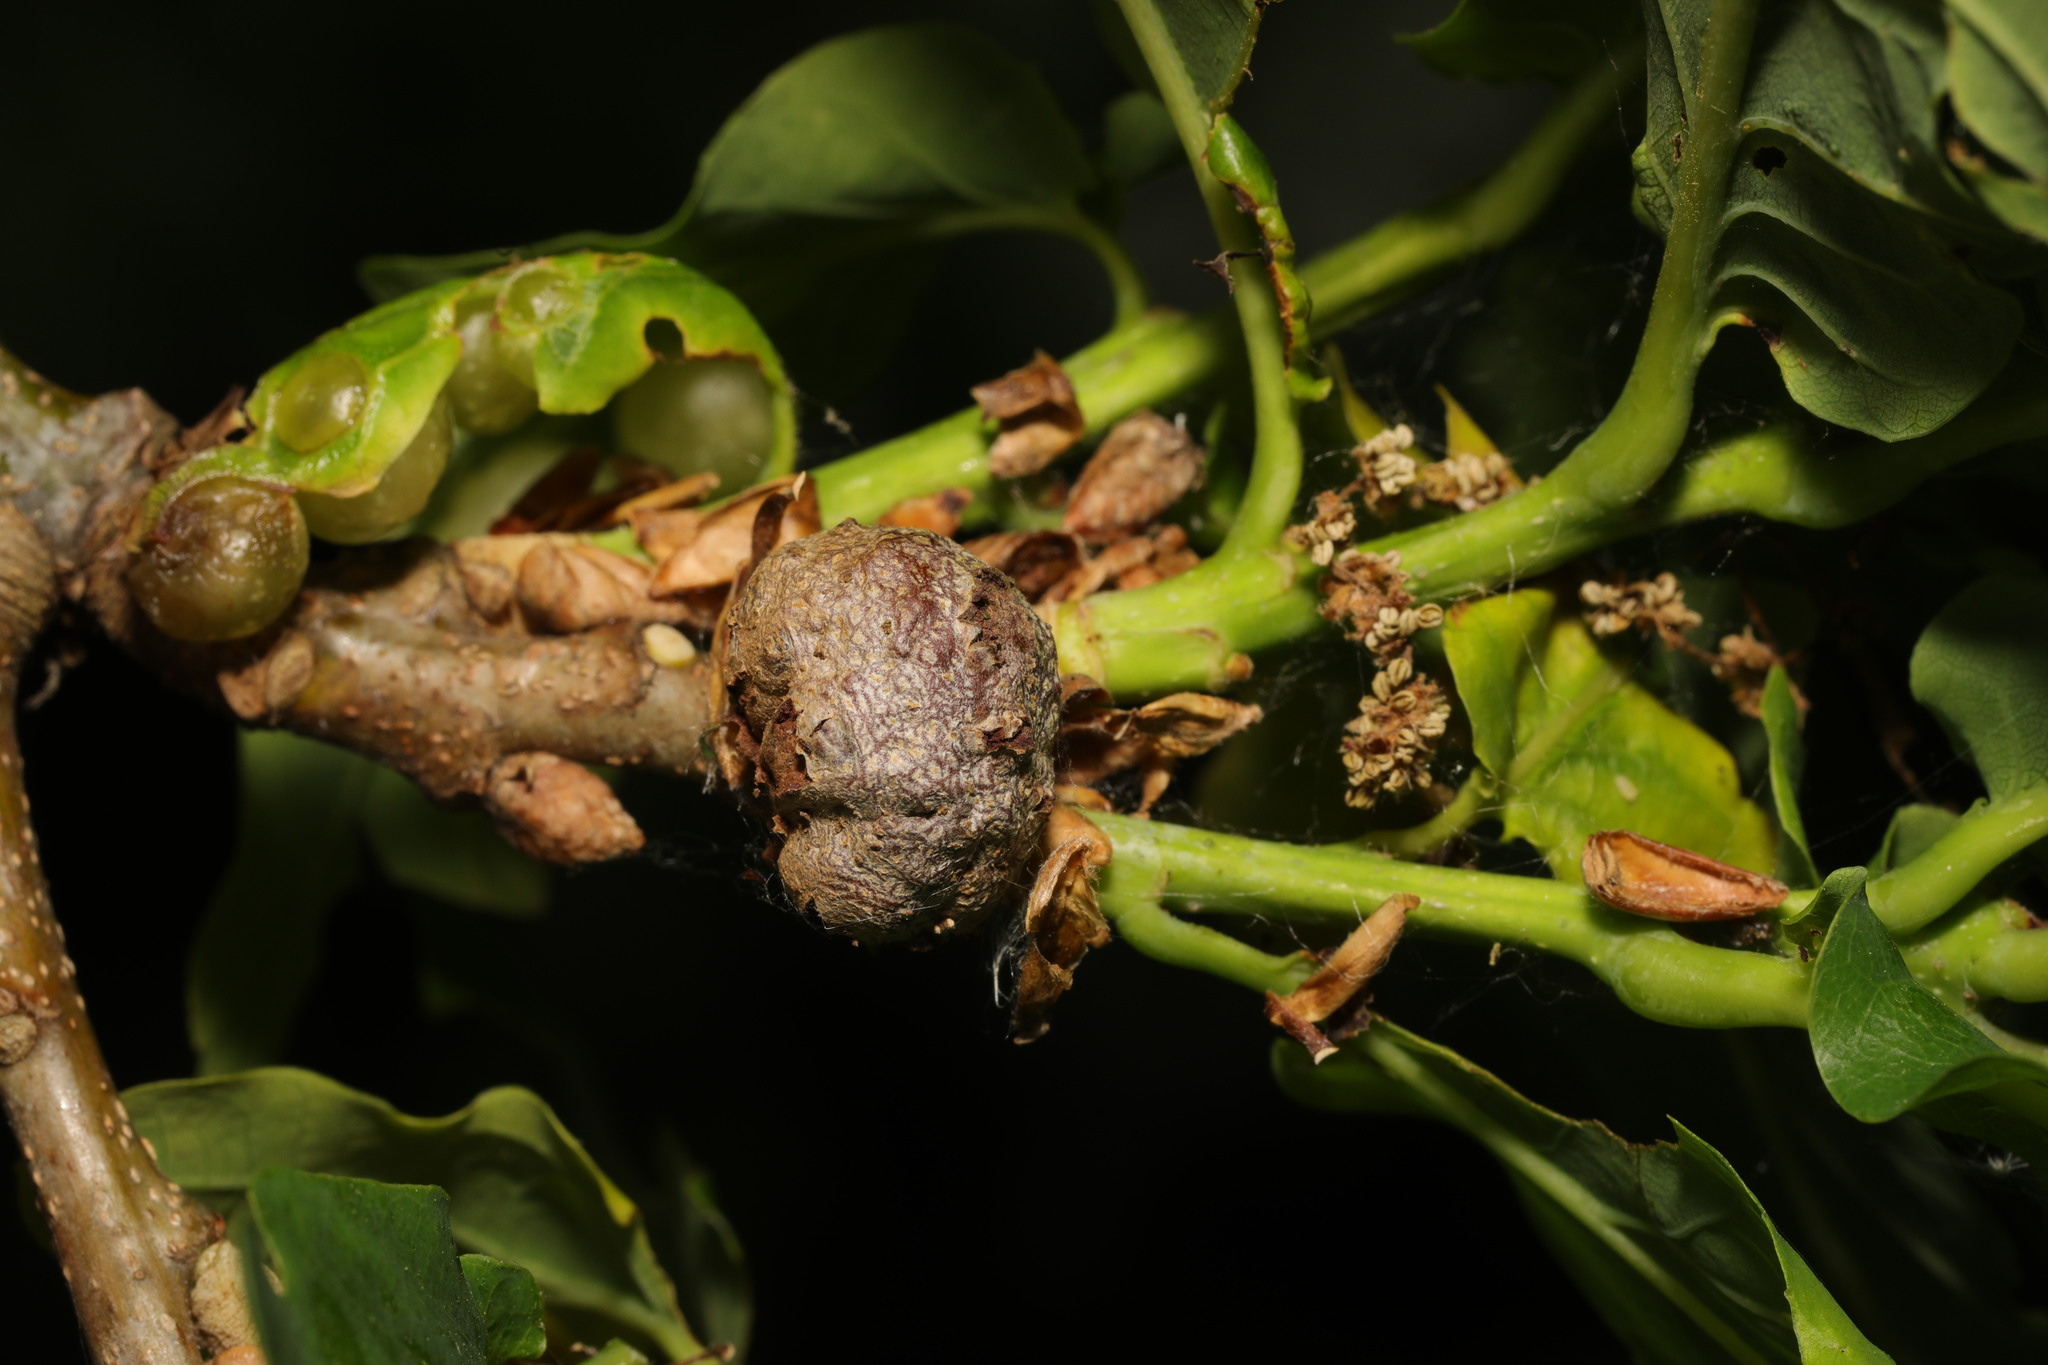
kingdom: Animalia
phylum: Arthropoda
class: Insecta
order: Hymenoptera
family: Cynipidae
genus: Andricus
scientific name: Andricus lignicolus
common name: Cola-nut gall
